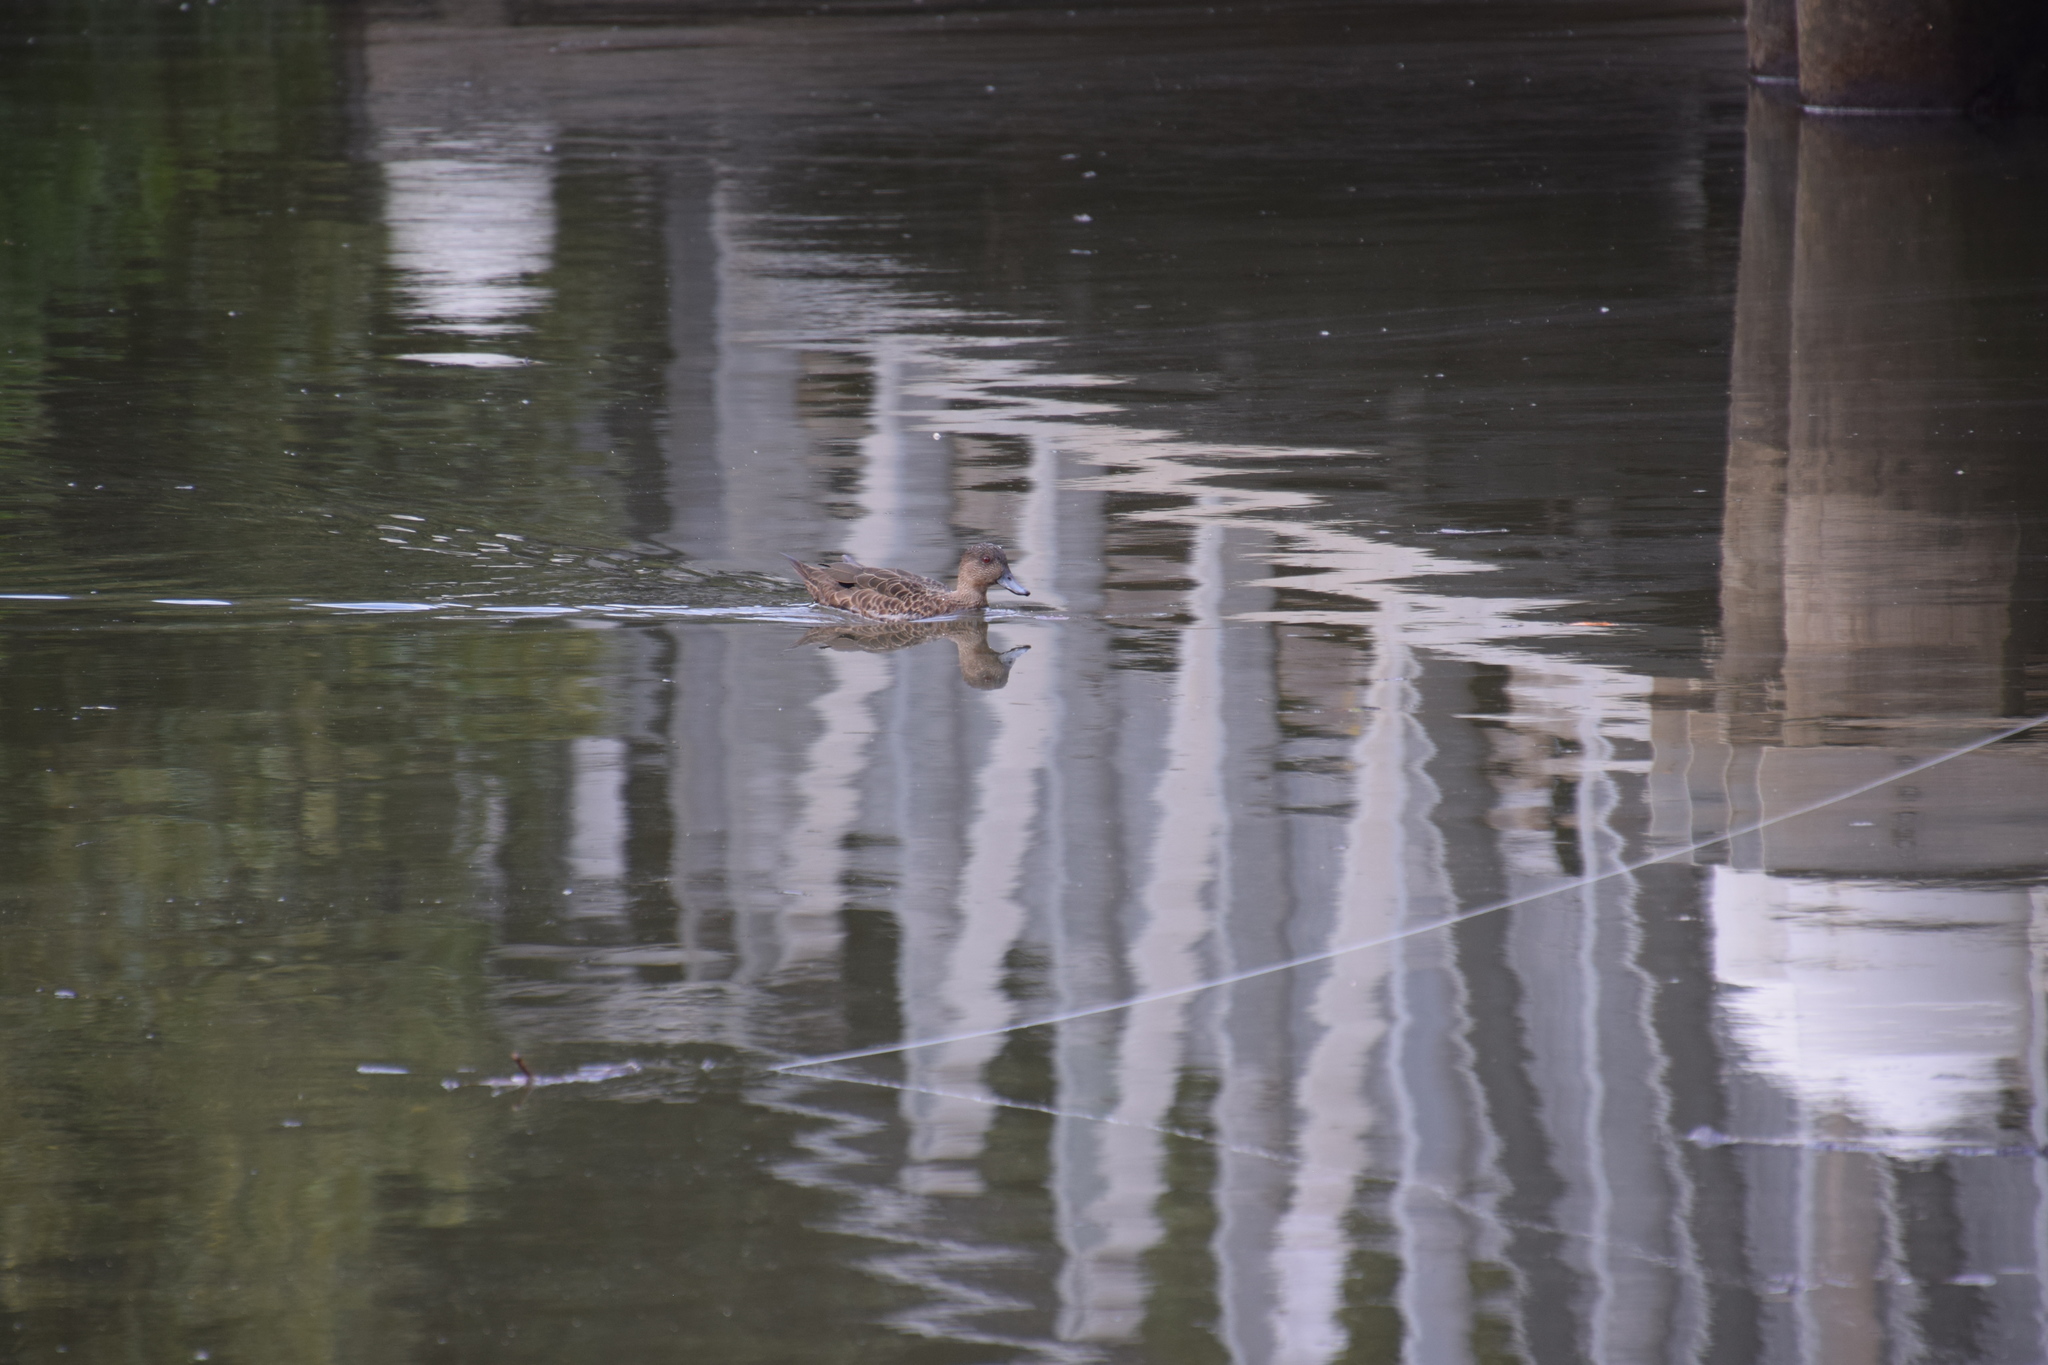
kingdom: Animalia
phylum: Chordata
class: Aves
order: Anseriformes
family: Anatidae
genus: Anas
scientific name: Anas castanea
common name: Chestnut teal
